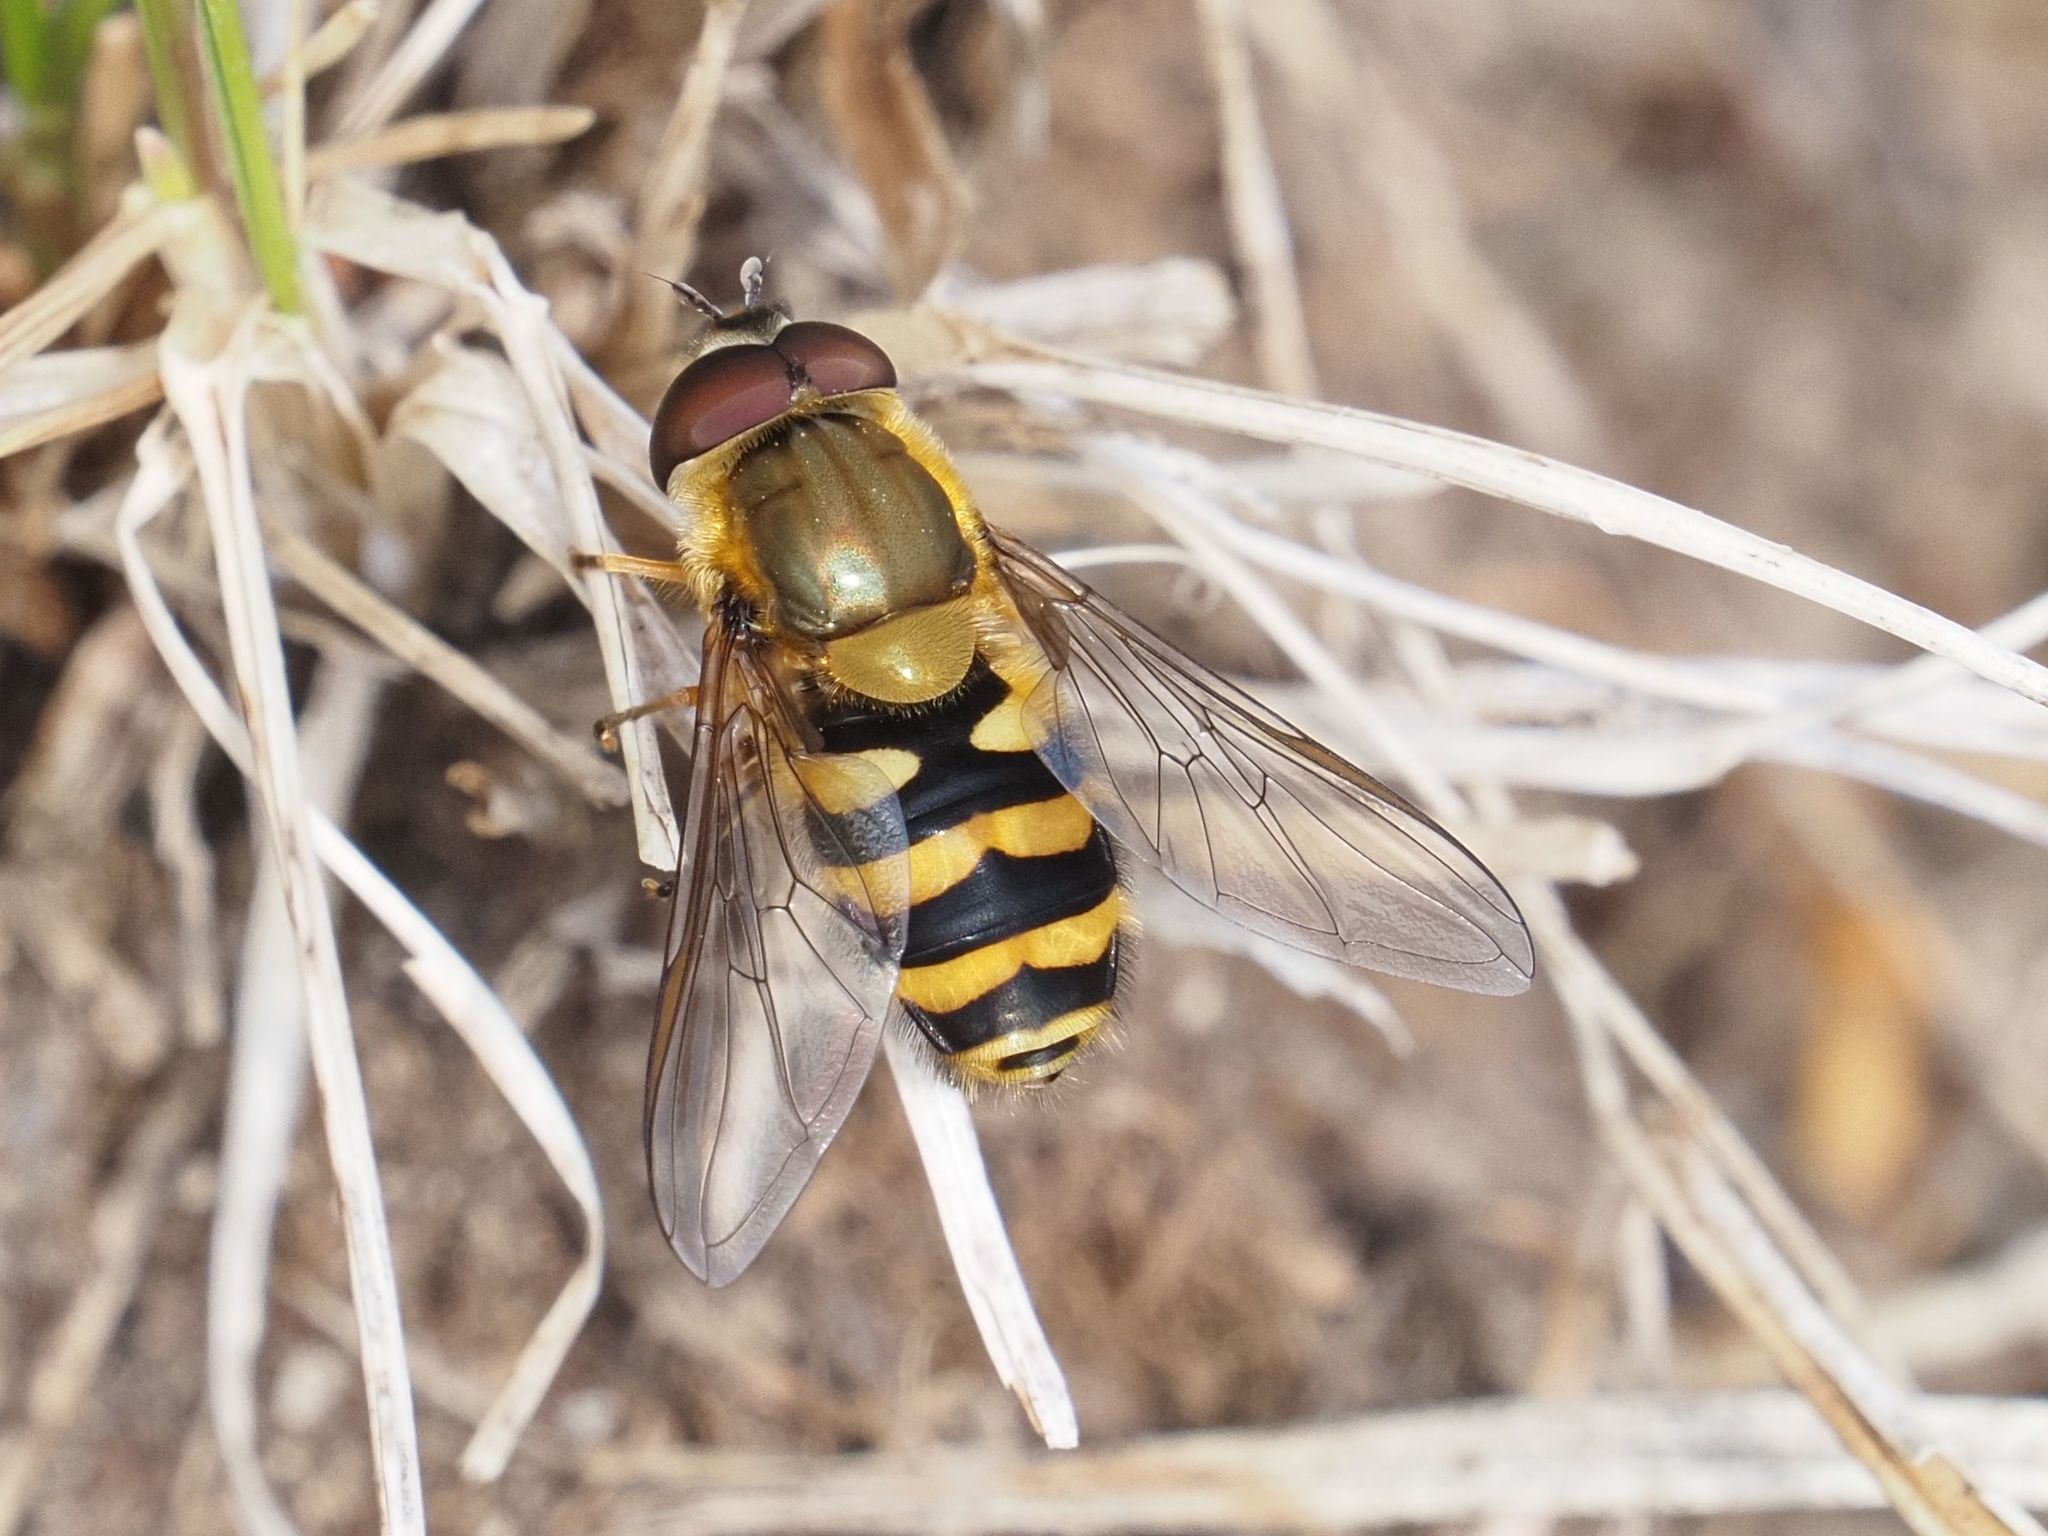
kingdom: Animalia
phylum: Arthropoda
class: Insecta
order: Diptera
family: Syrphidae
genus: Syrphus
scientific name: Syrphus
